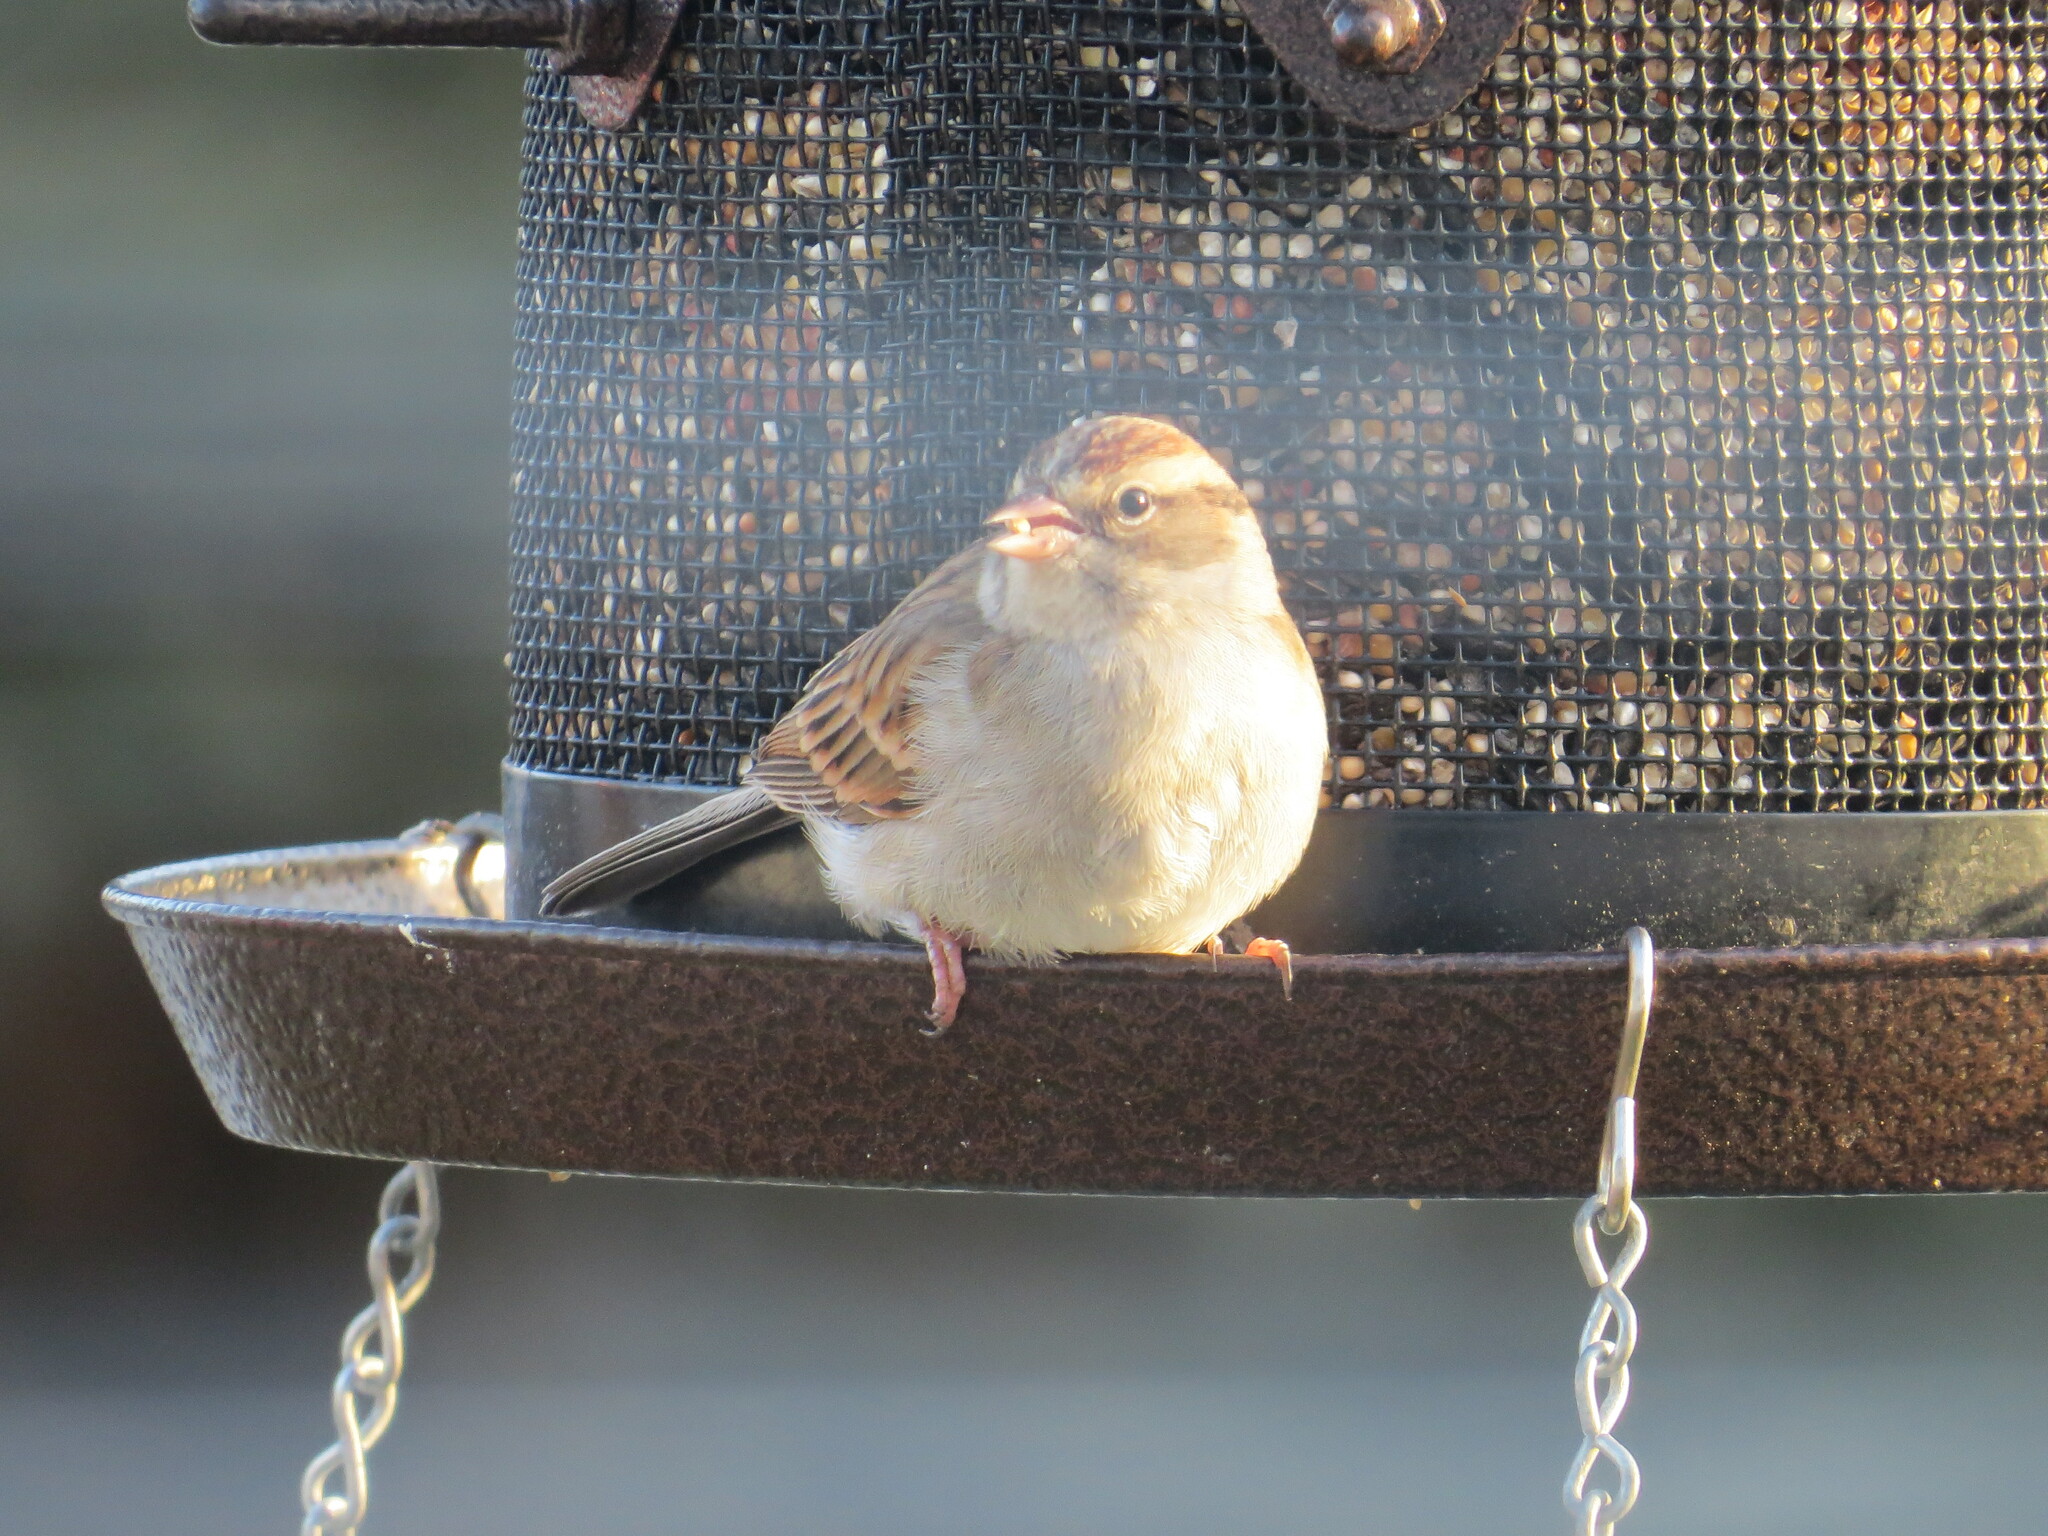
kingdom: Animalia
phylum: Chordata
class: Aves
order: Passeriformes
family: Passerellidae
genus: Spizella
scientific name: Spizella passerina
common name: Chipping sparrow
